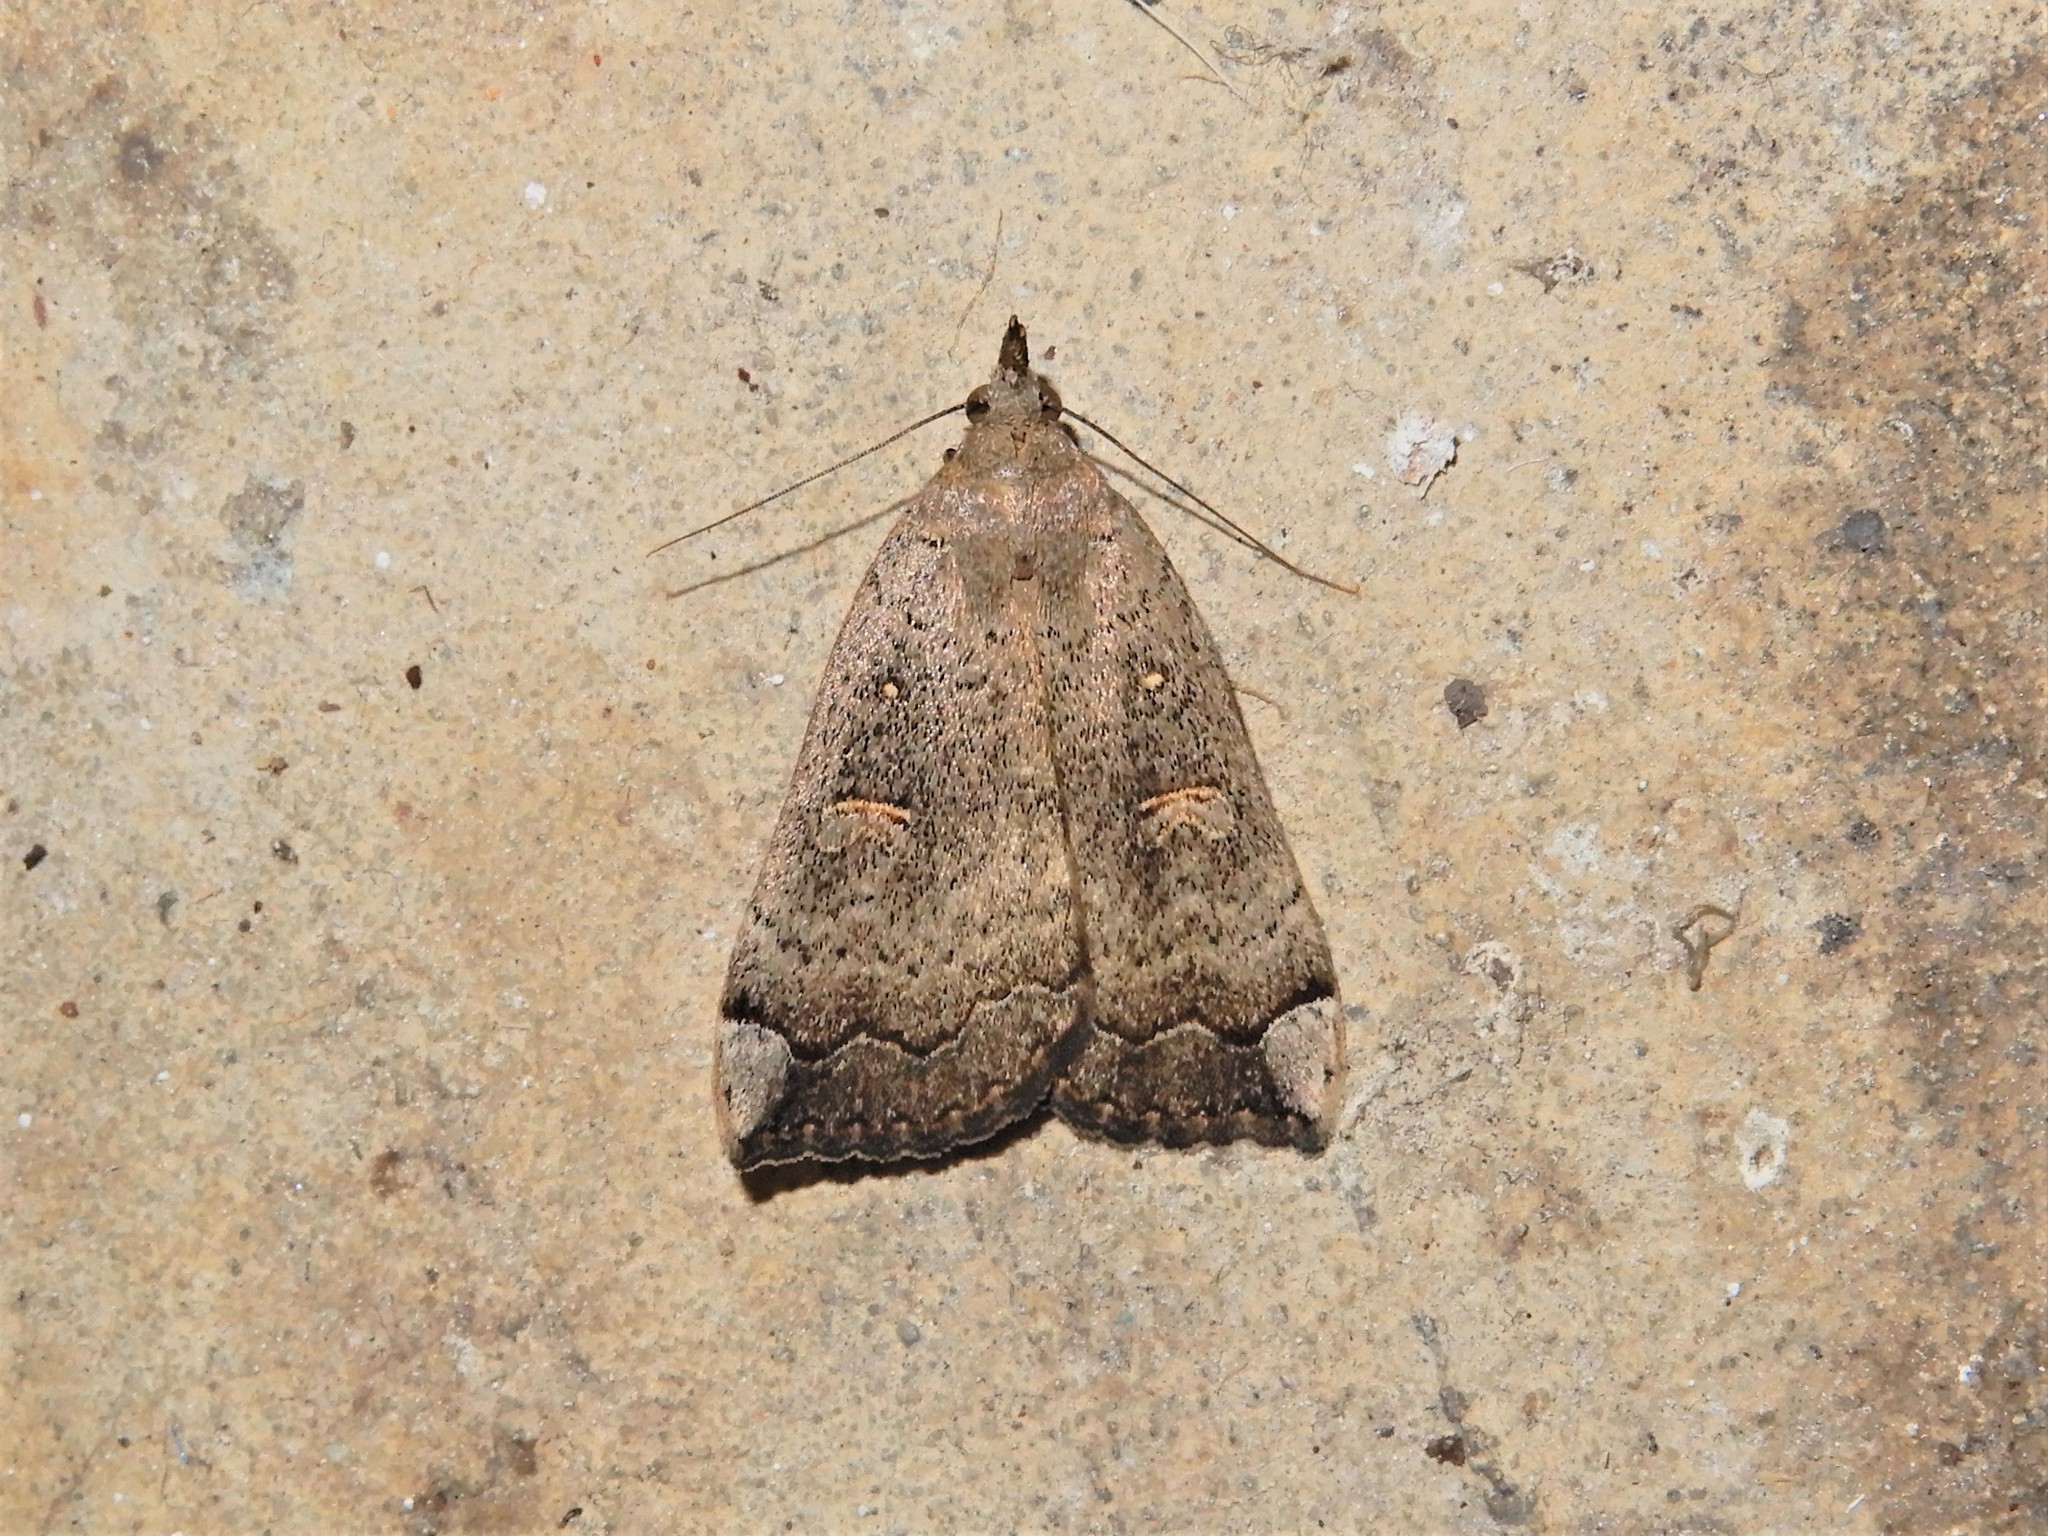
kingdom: Animalia
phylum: Arthropoda
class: Insecta
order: Lepidoptera
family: Erebidae
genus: Rhapsa
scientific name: Rhapsa scotosialis
